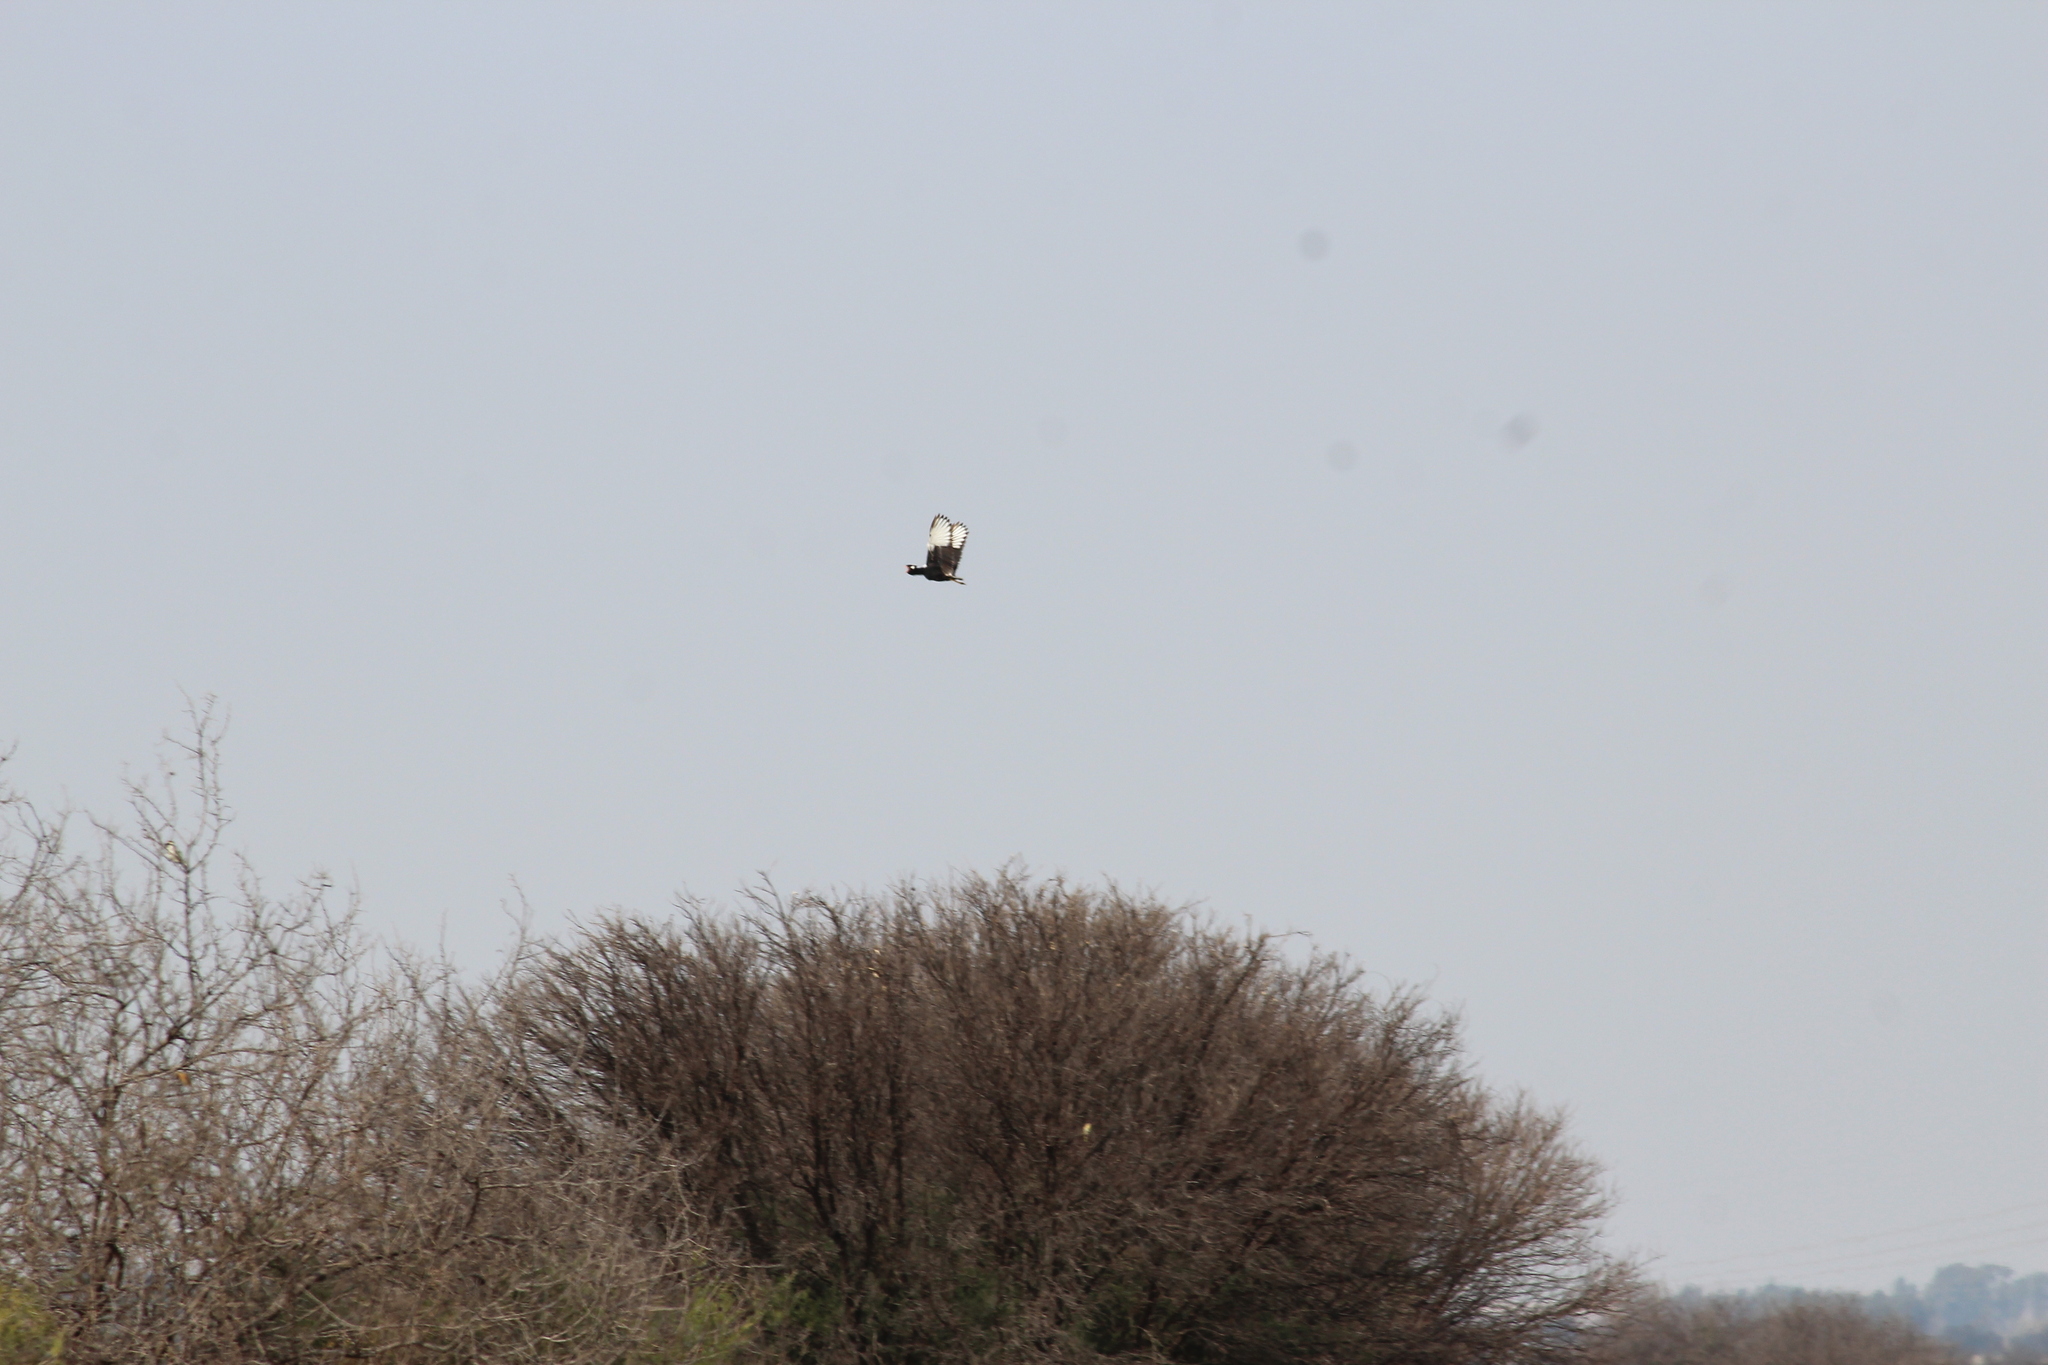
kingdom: Animalia
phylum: Chordata
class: Aves
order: Otidiformes
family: Otididae
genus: Afrotis
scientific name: Afrotis afraoides
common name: Northern black korhaan
